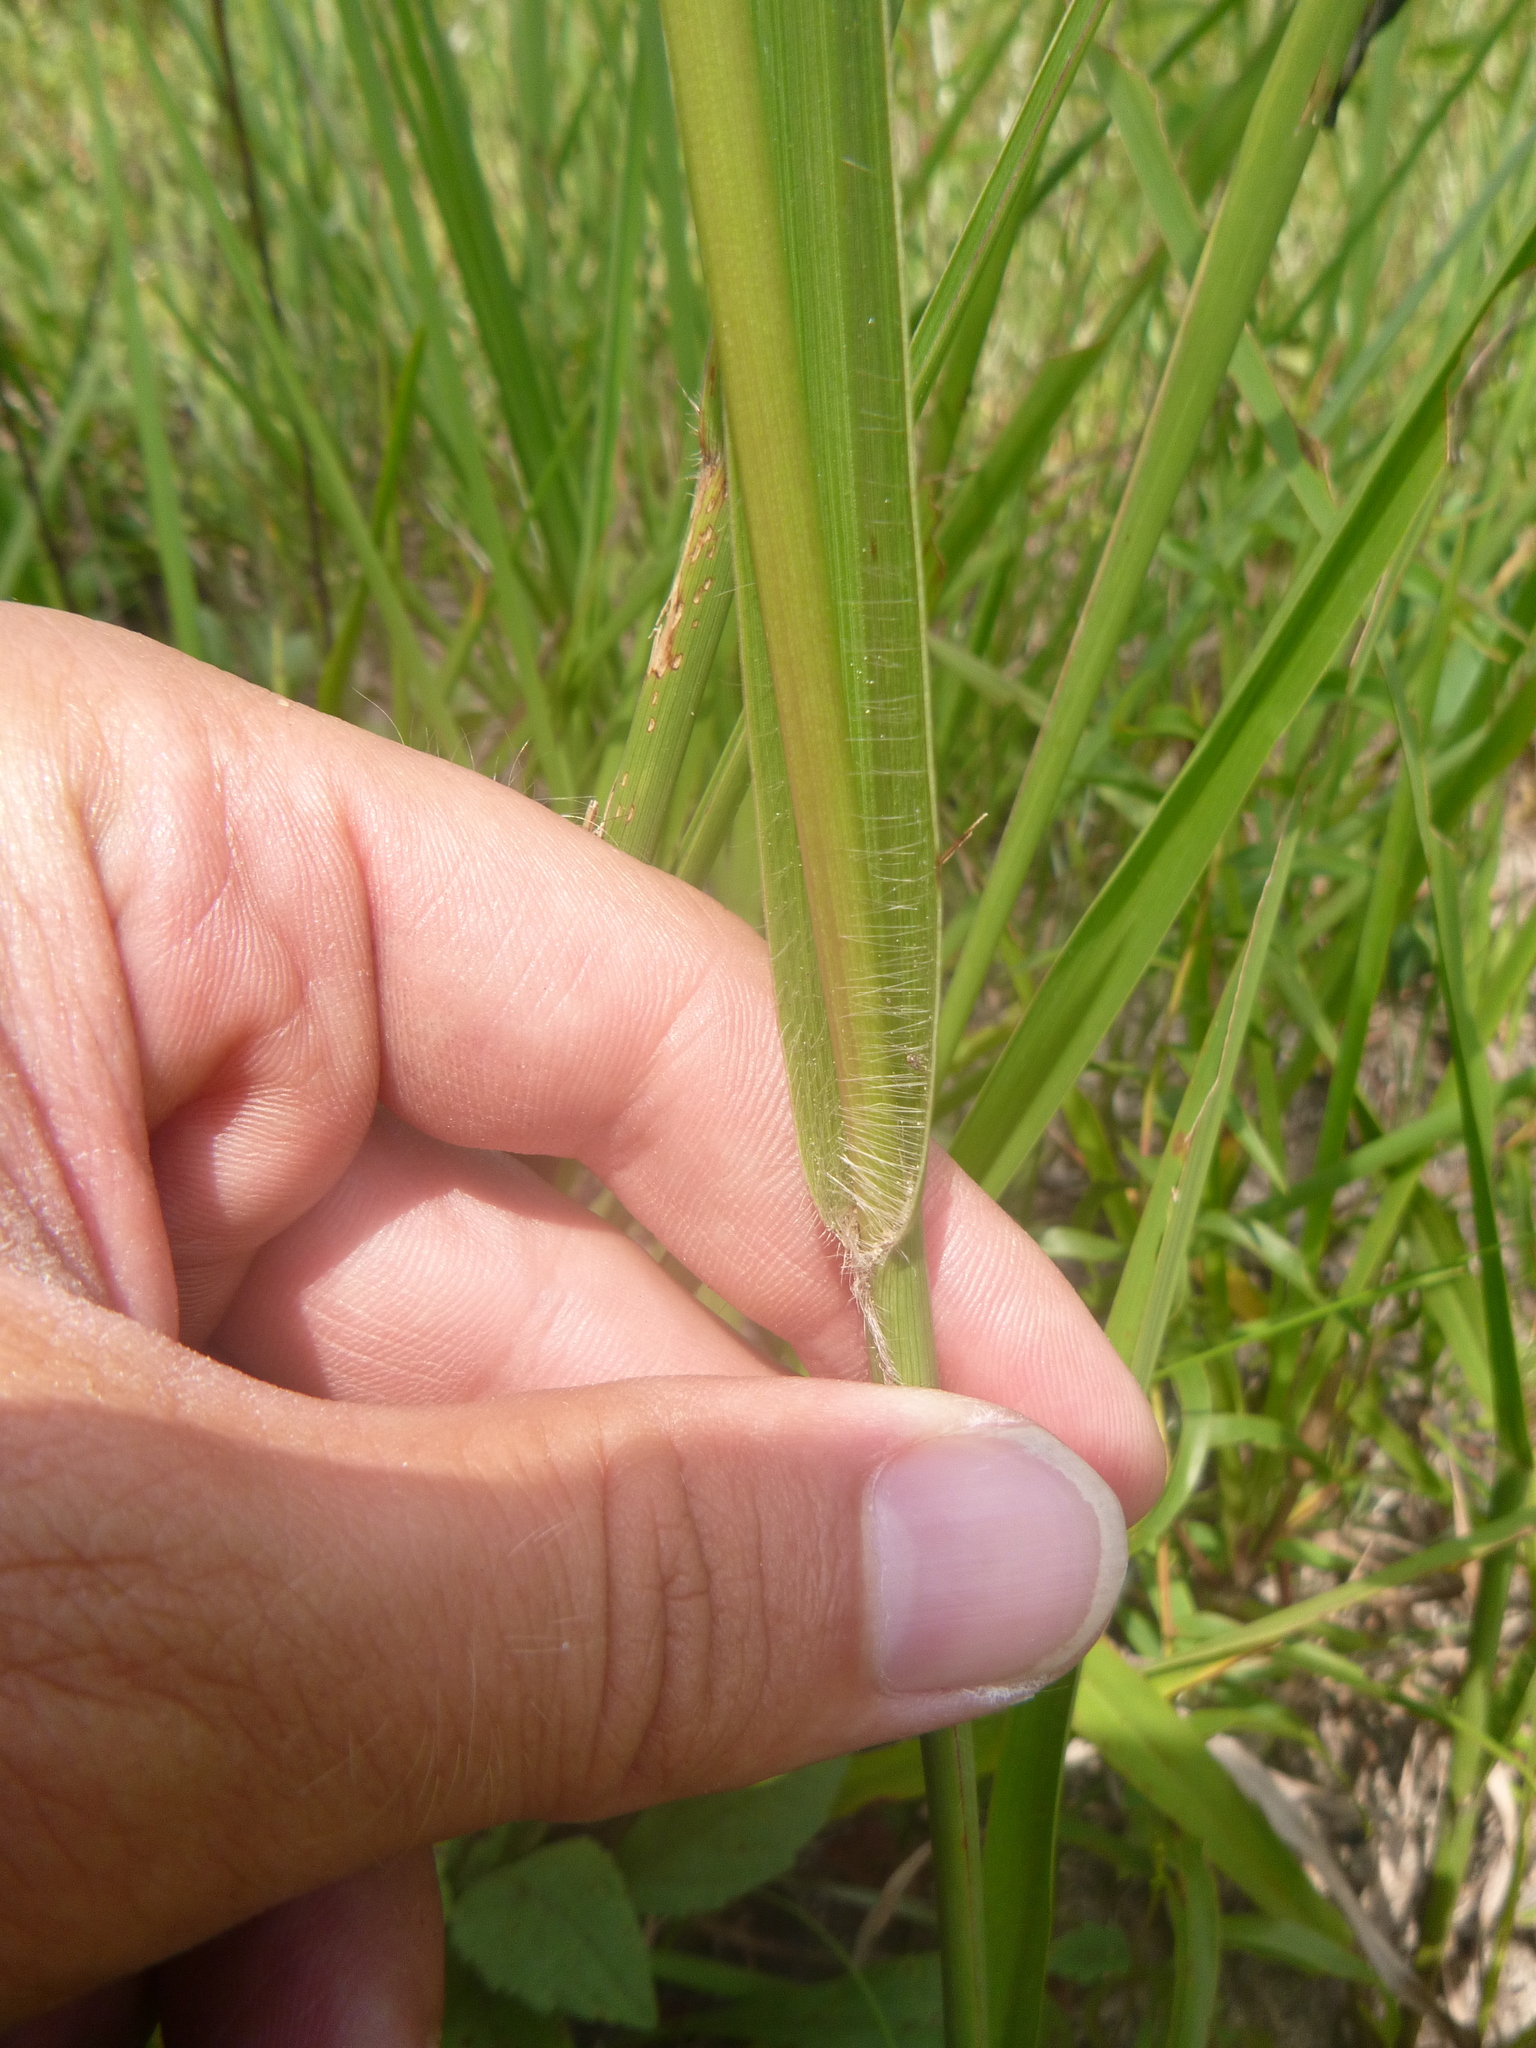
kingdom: Plantae
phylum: Tracheophyta
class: Liliopsida
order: Poales
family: Poaceae
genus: Paspalum
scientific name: Paspalum floridanum
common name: Florida paspalum
